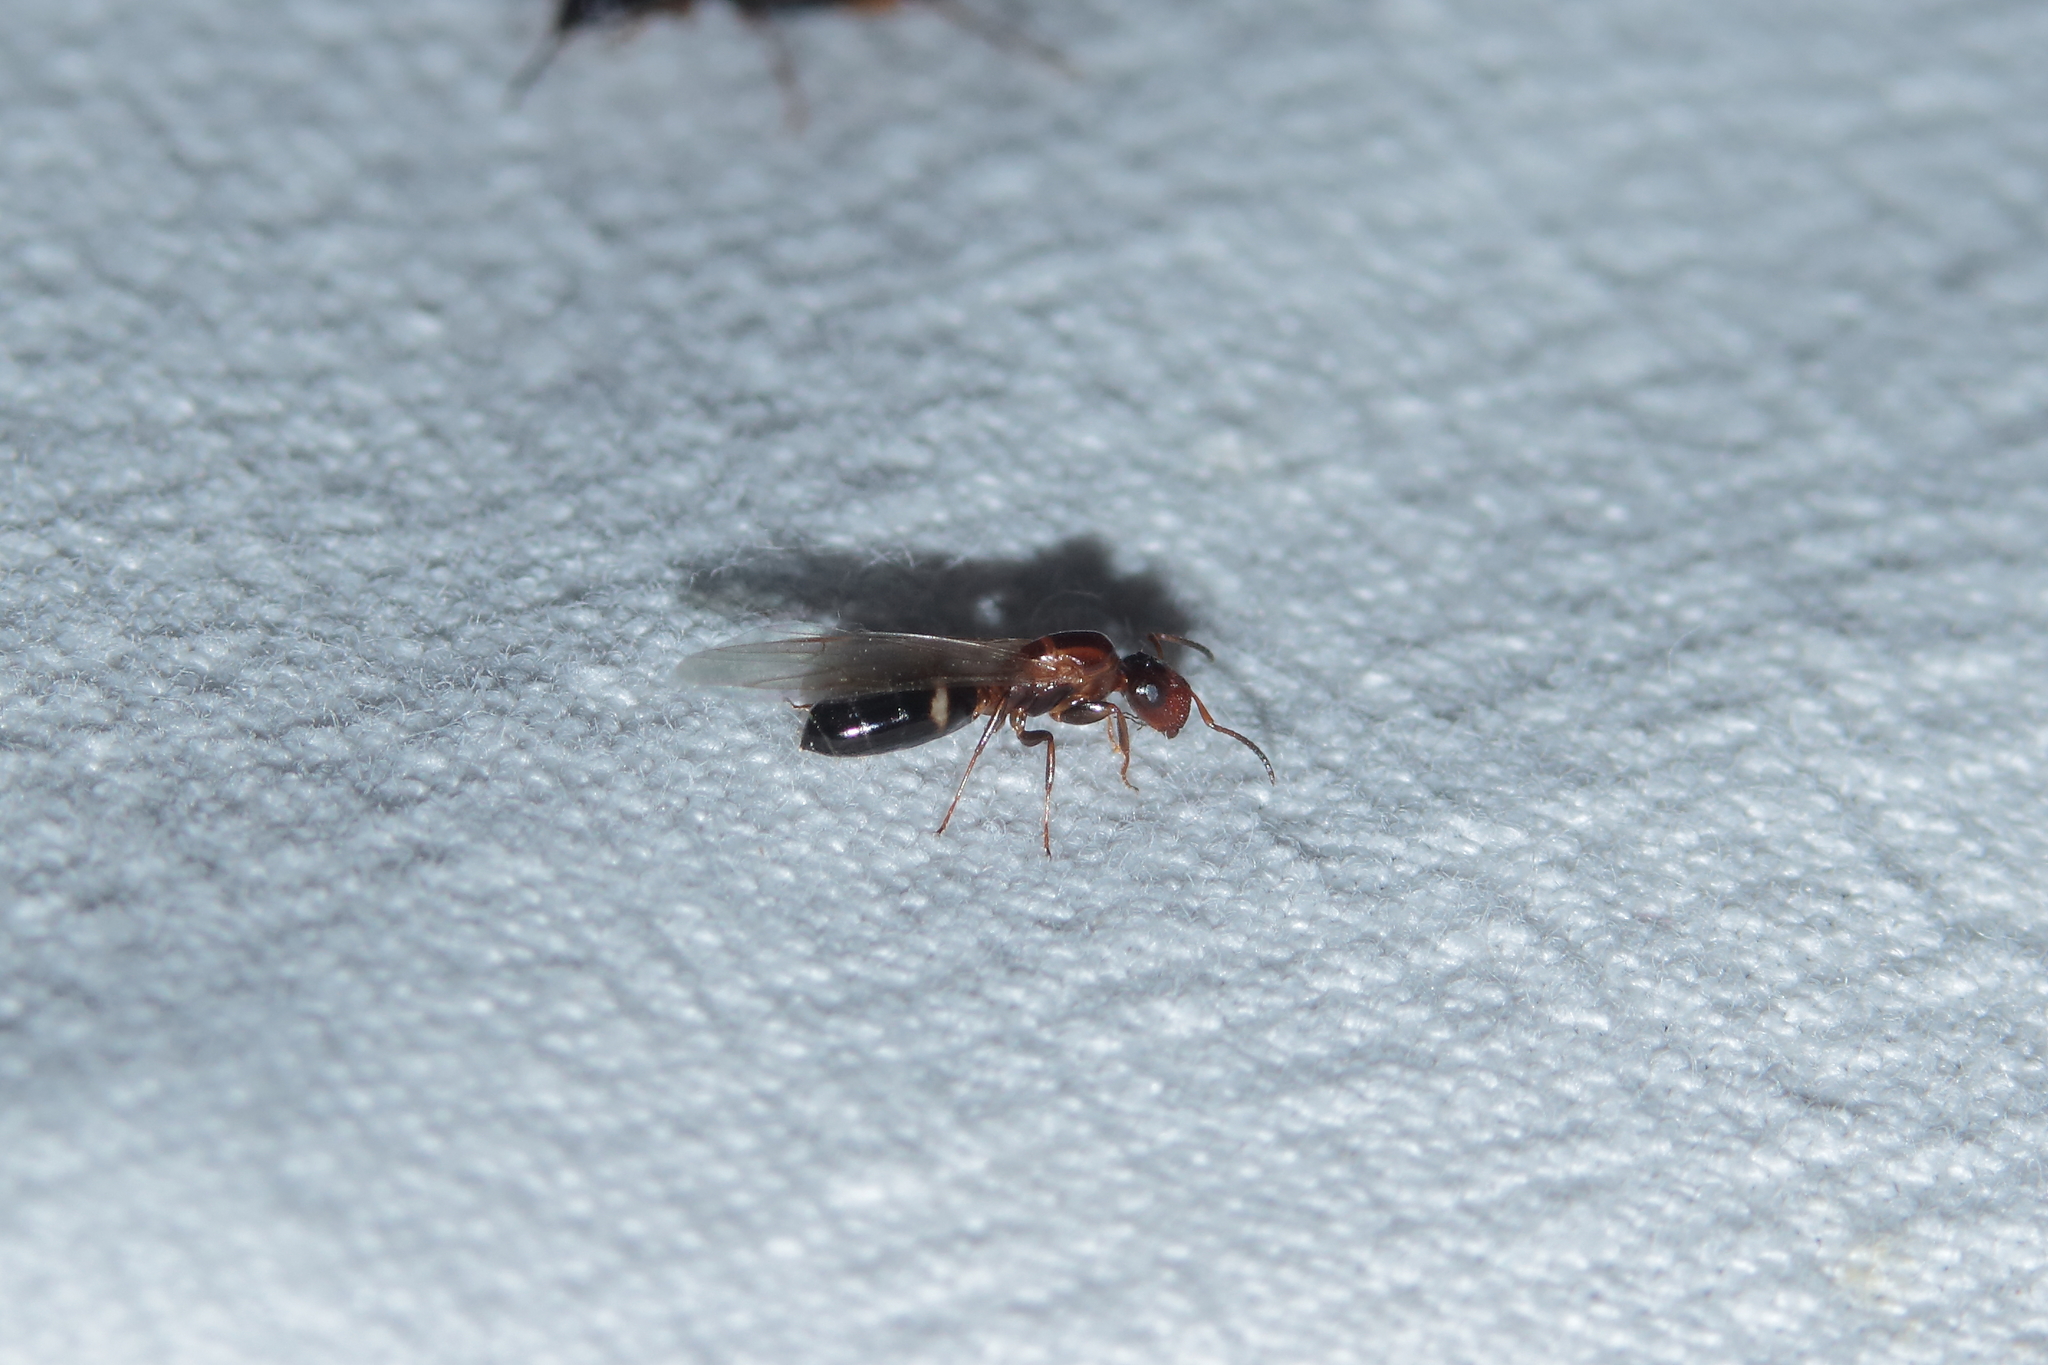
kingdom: Animalia
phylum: Arthropoda
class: Insecta
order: Hymenoptera
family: Formicidae
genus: Camponotus
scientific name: Camponotus truncatus
